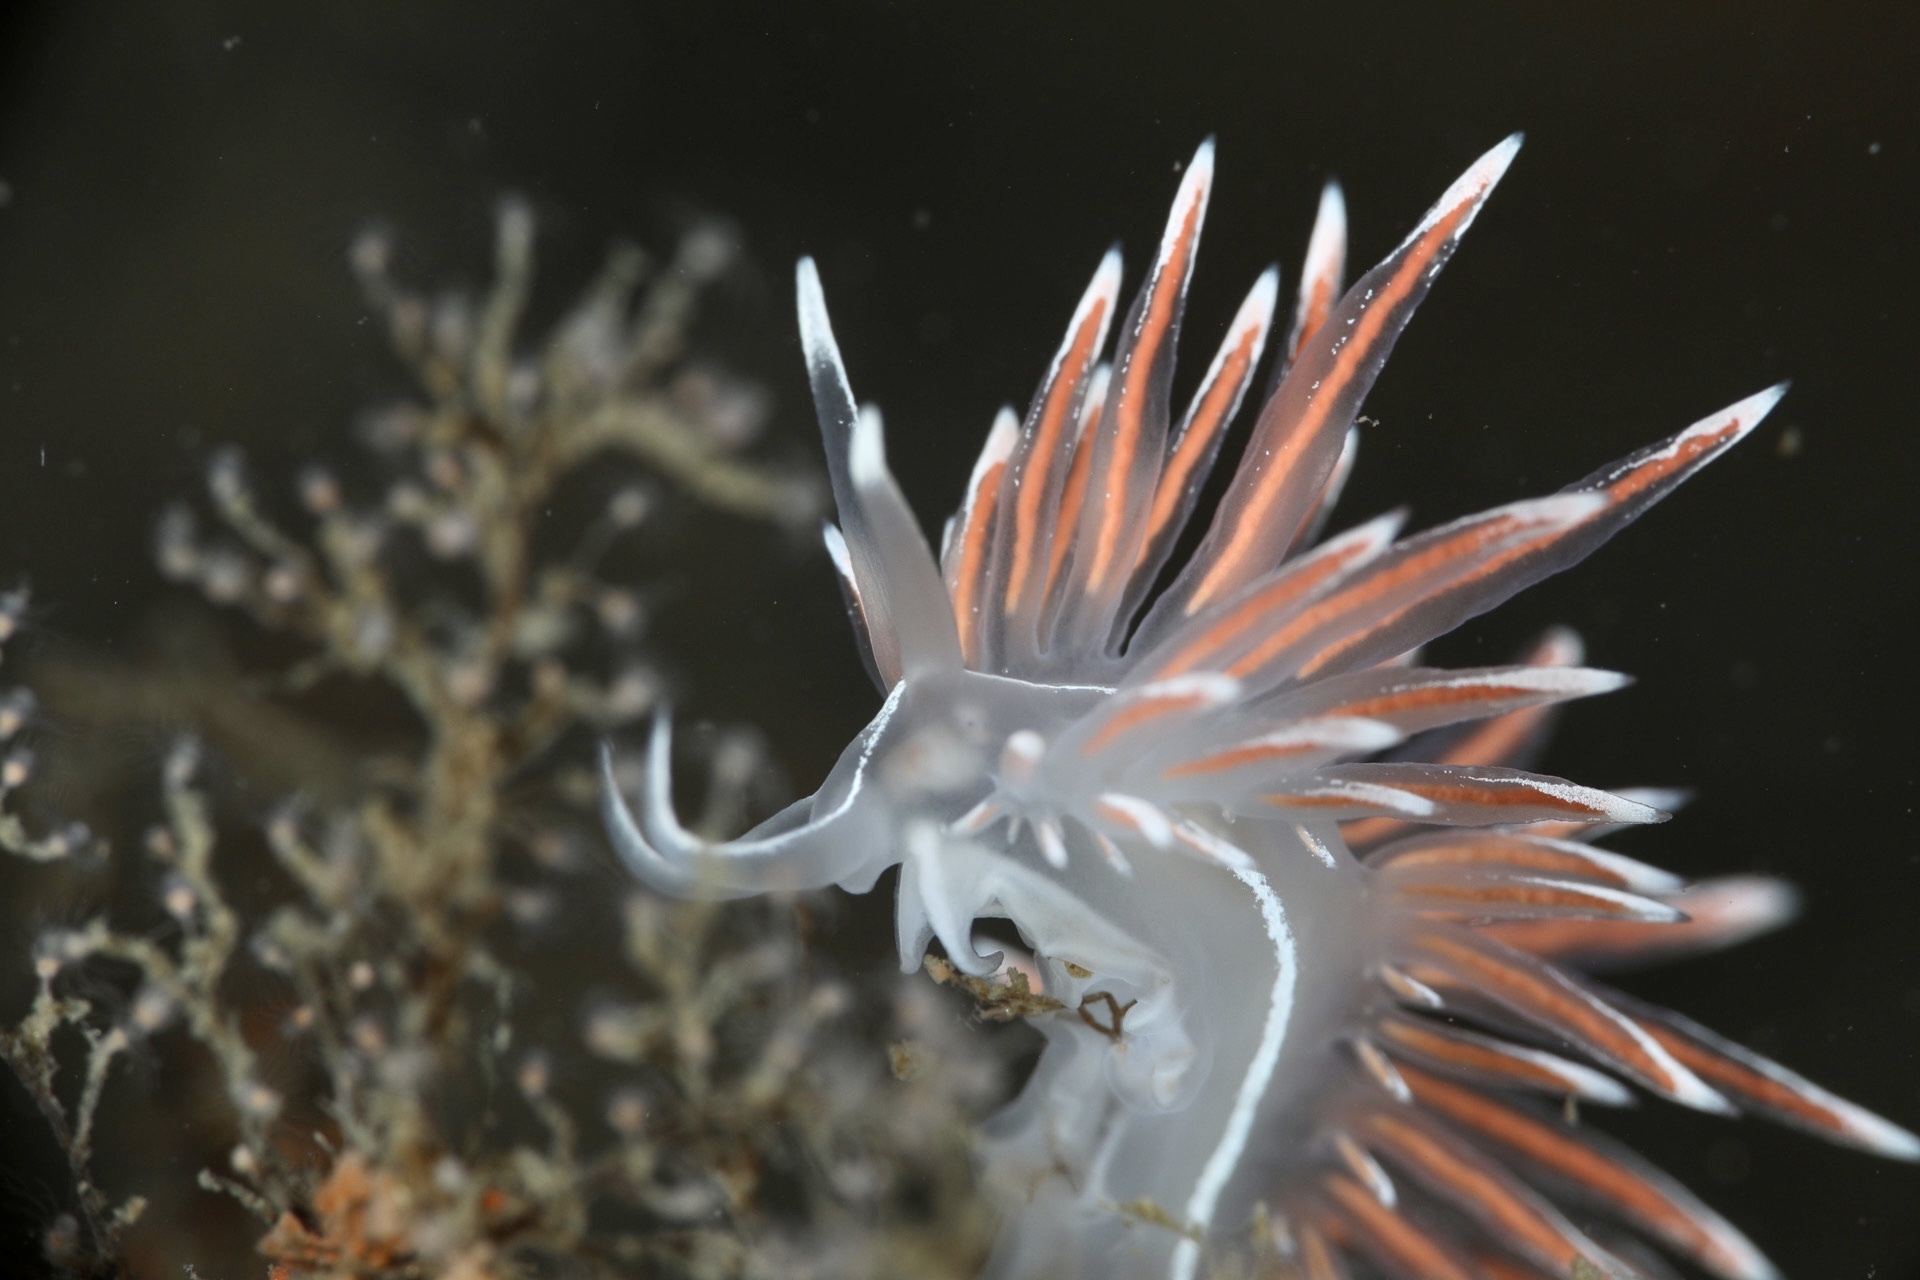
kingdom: Animalia
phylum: Mollusca
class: Gastropoda
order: Nudibranchia
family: Coryphellidae
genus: Coryphella
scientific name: Coryphella lineata
